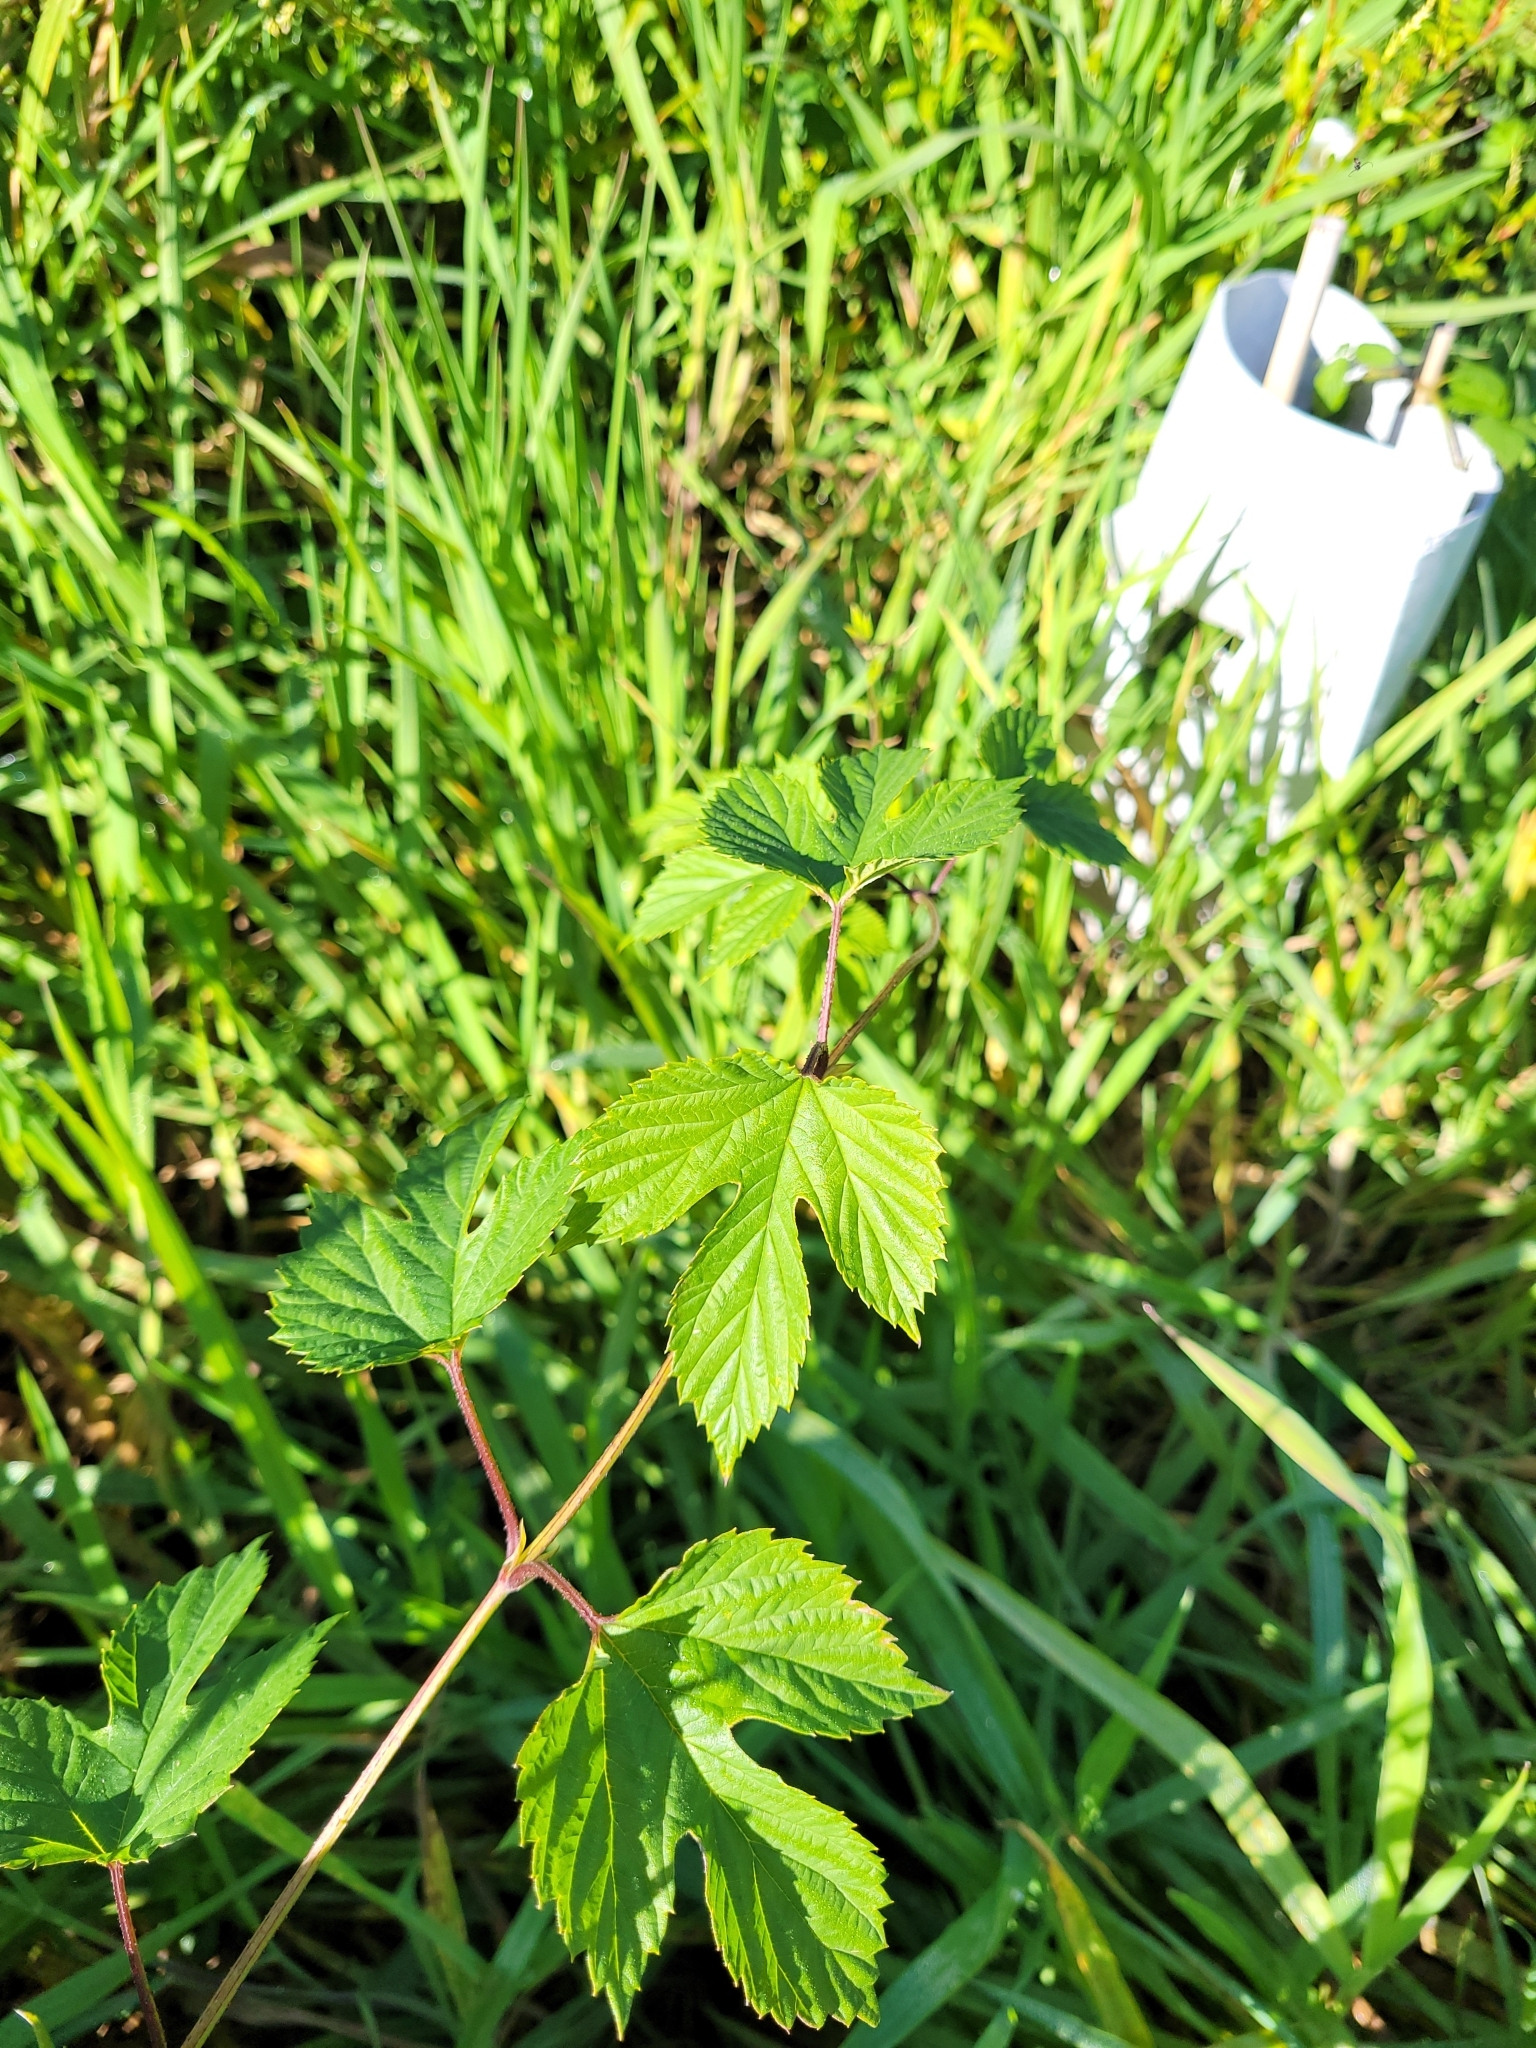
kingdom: Plantae
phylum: Tracheophyta
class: Magnoliopsida
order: Rosales
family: Cannabaceae
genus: Humulus
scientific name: Humulus lupulus
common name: Hop
